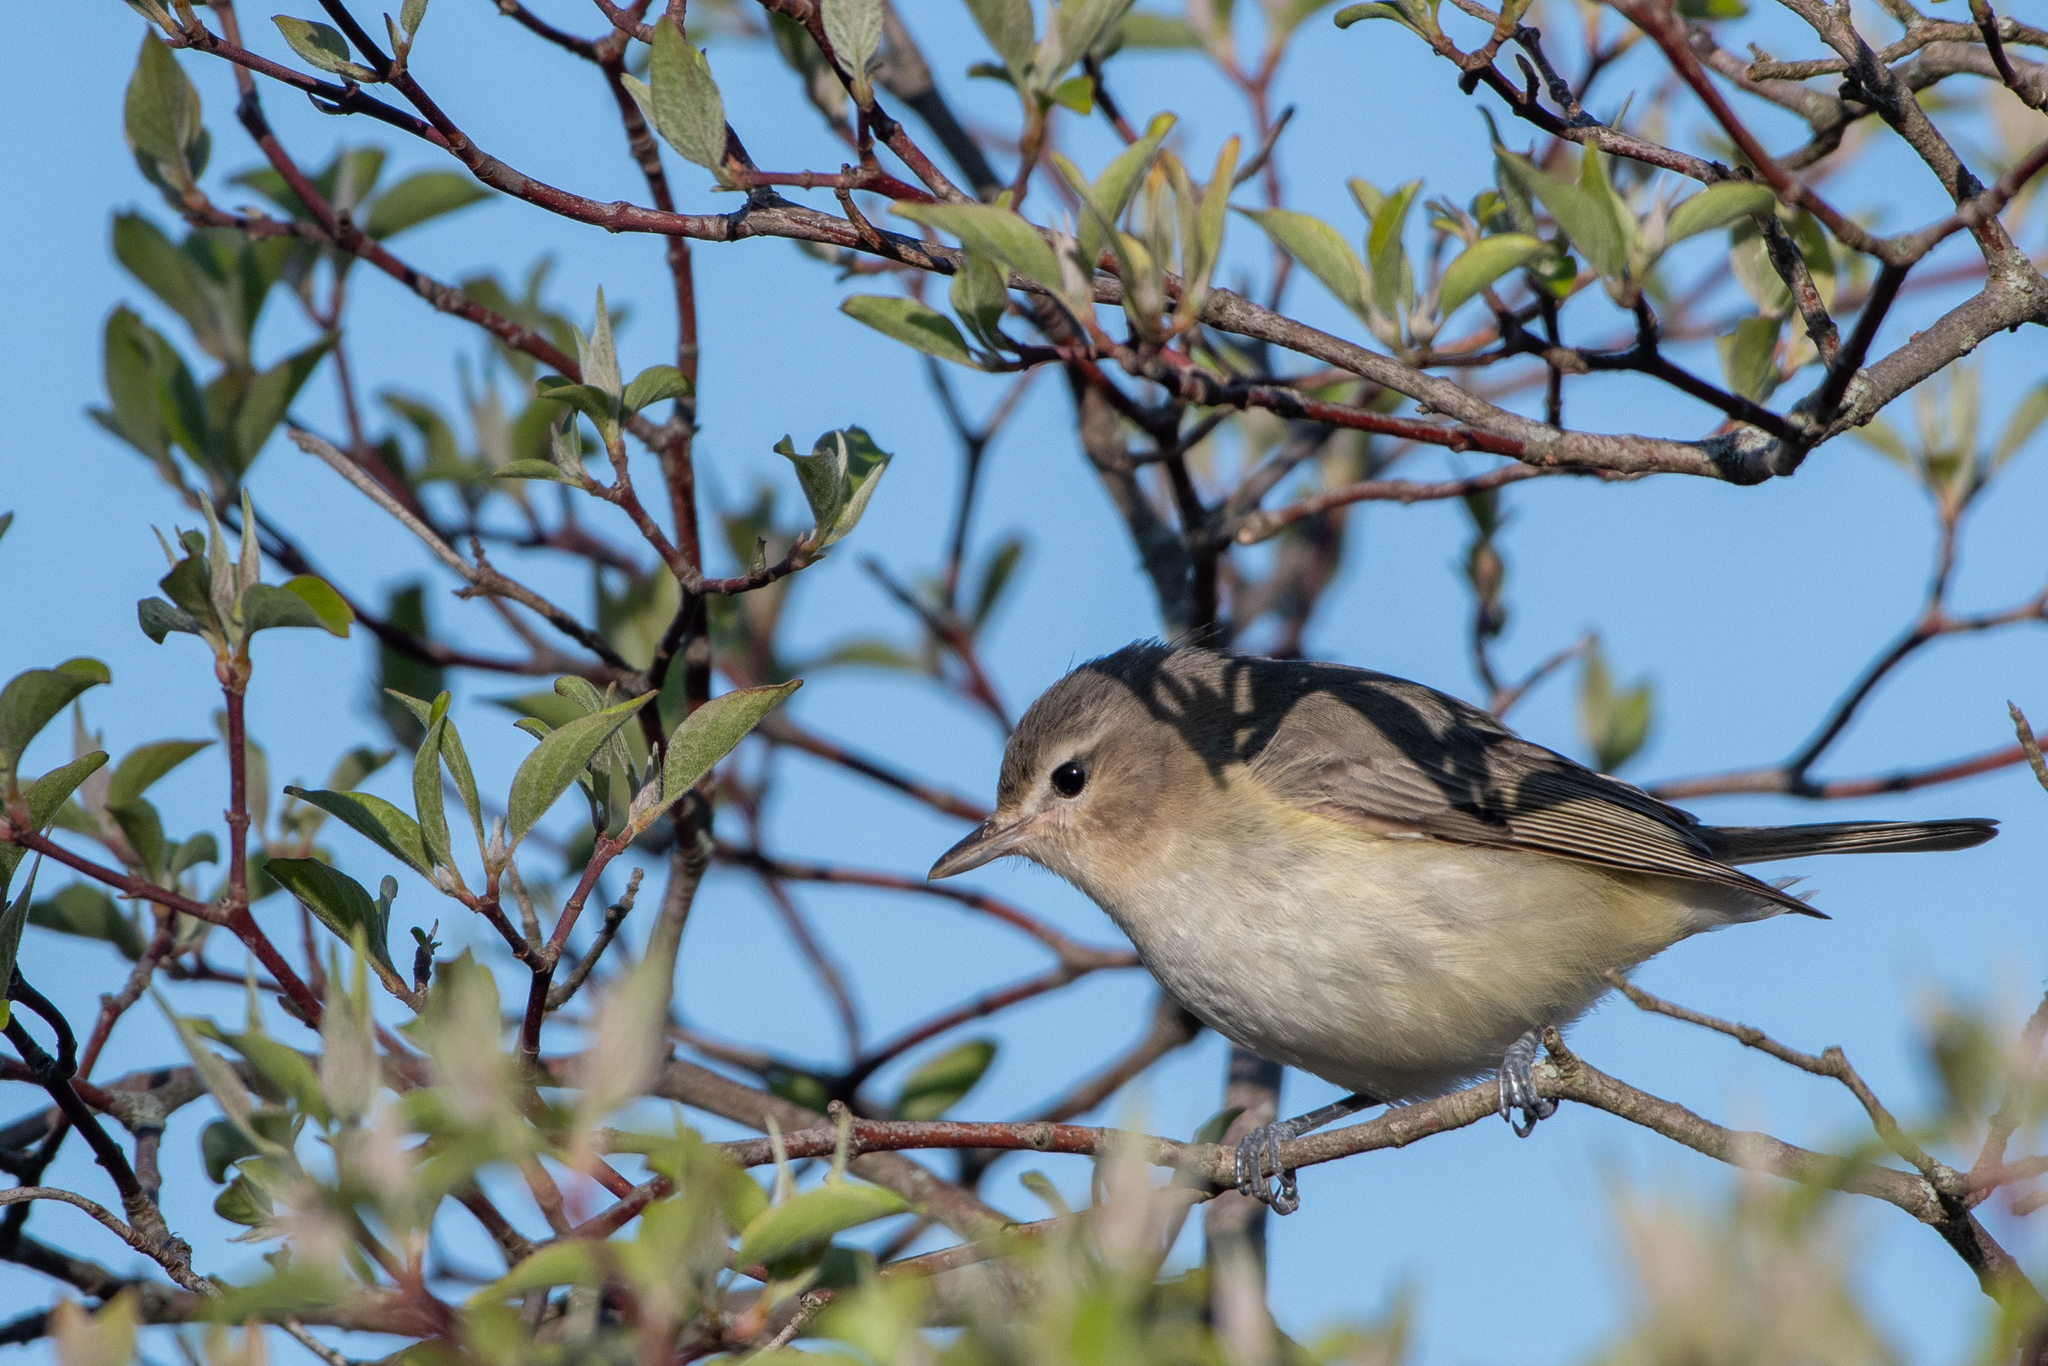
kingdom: Animalia
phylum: Chordata
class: Aves
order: Passeriformes
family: Vireonidae
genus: Vireo
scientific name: Vireo gilvus
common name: Warbling vireo
